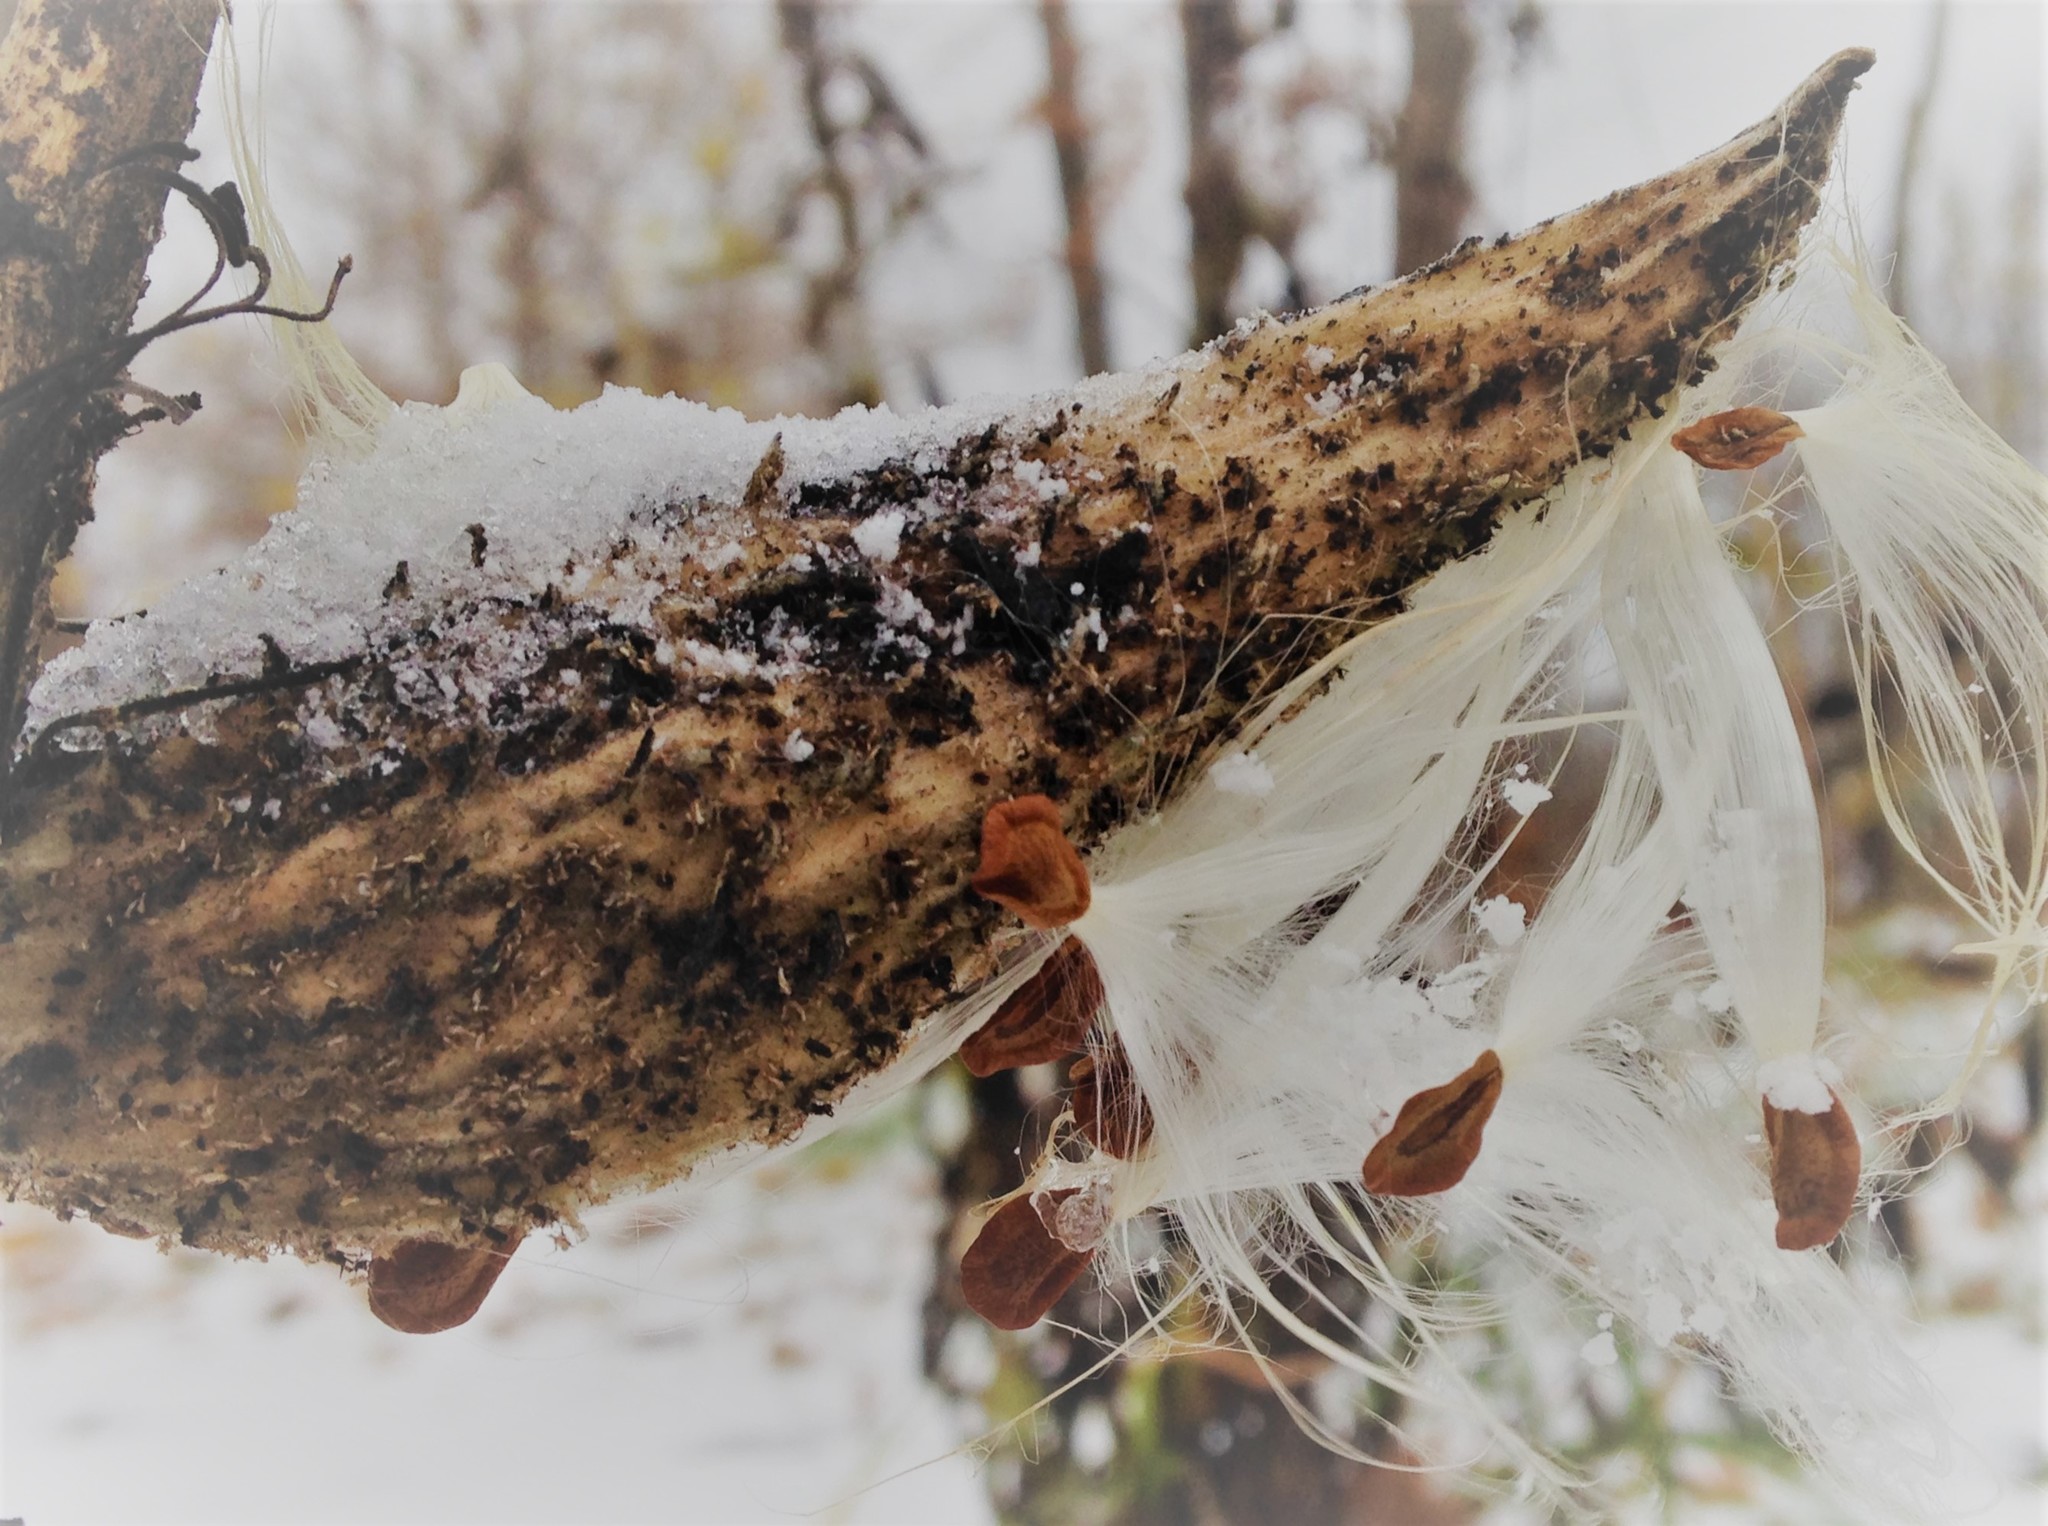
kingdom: Plantae
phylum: Tracheophyta
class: Magnoliopsida
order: Gentianales
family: Apocynaceae
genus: Asclepias
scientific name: Asclepias syriaca
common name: Common milkweed
